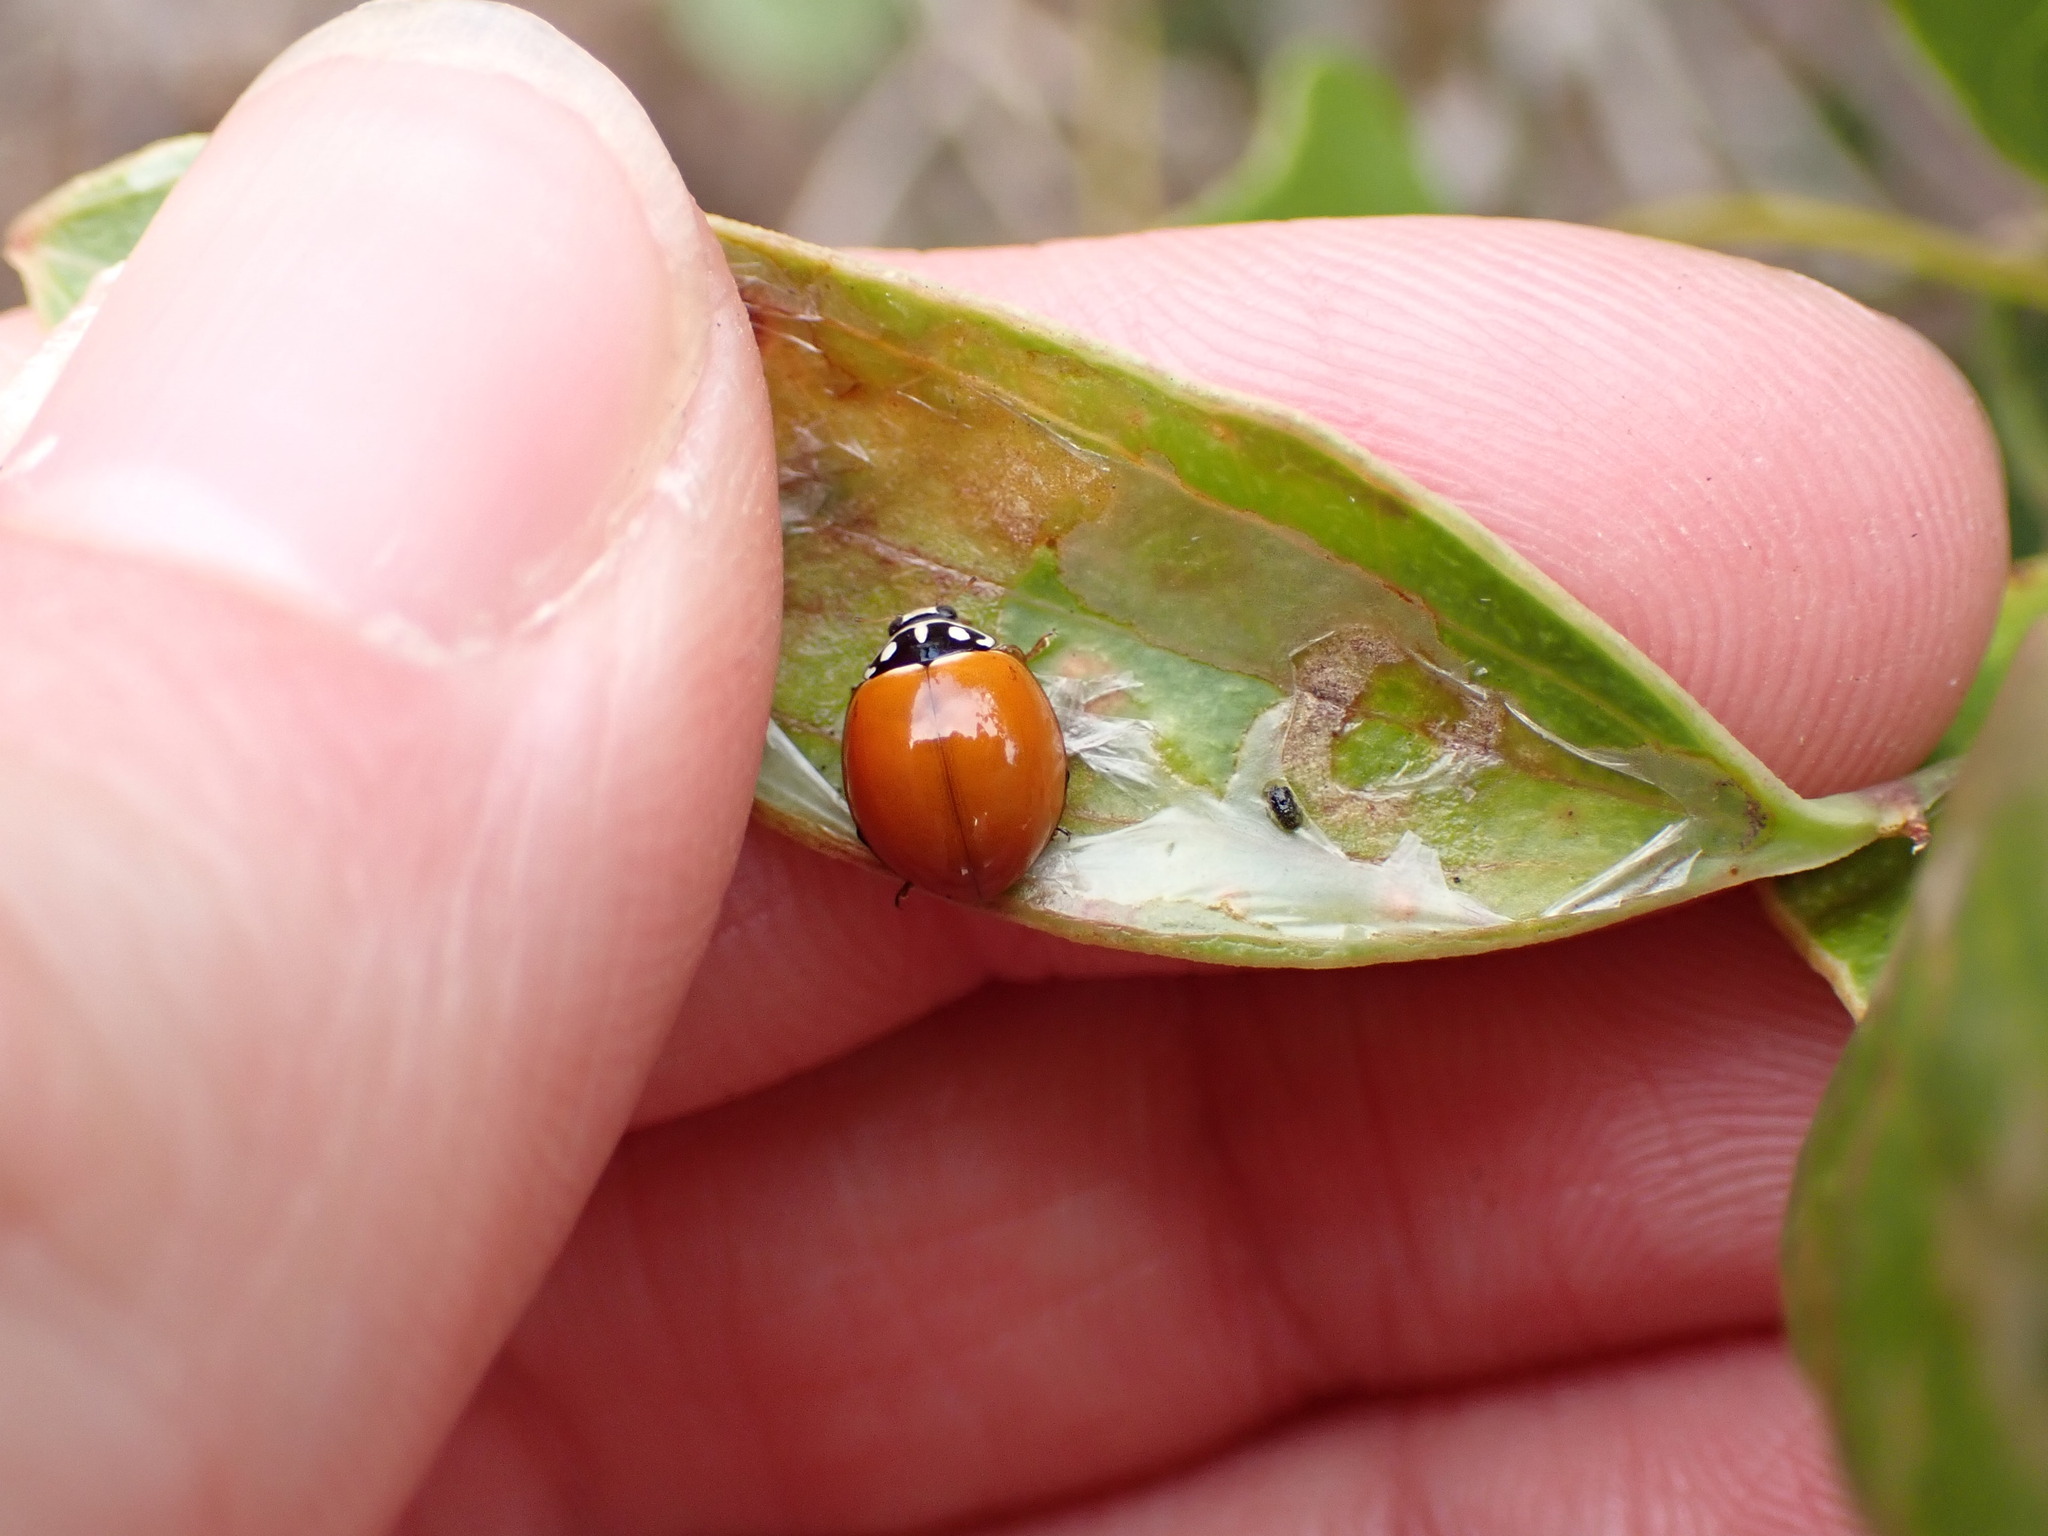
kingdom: Animalia
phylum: Arthropoda
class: Insecta
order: Coleoptera
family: Coccinellidae
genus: Cycloneda
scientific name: Cycloneda sanguinea
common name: Ladybird beetle
